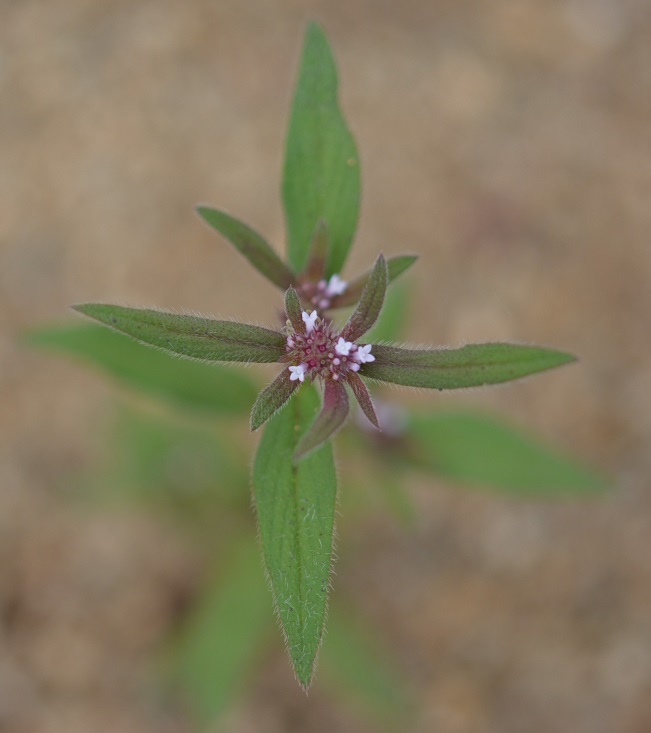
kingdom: Plantae
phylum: Tracheophyta
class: Magnoliopsida
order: Gentianales
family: Rubiaceae
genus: Spermacoce
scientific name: Spermacoce suaveolens
